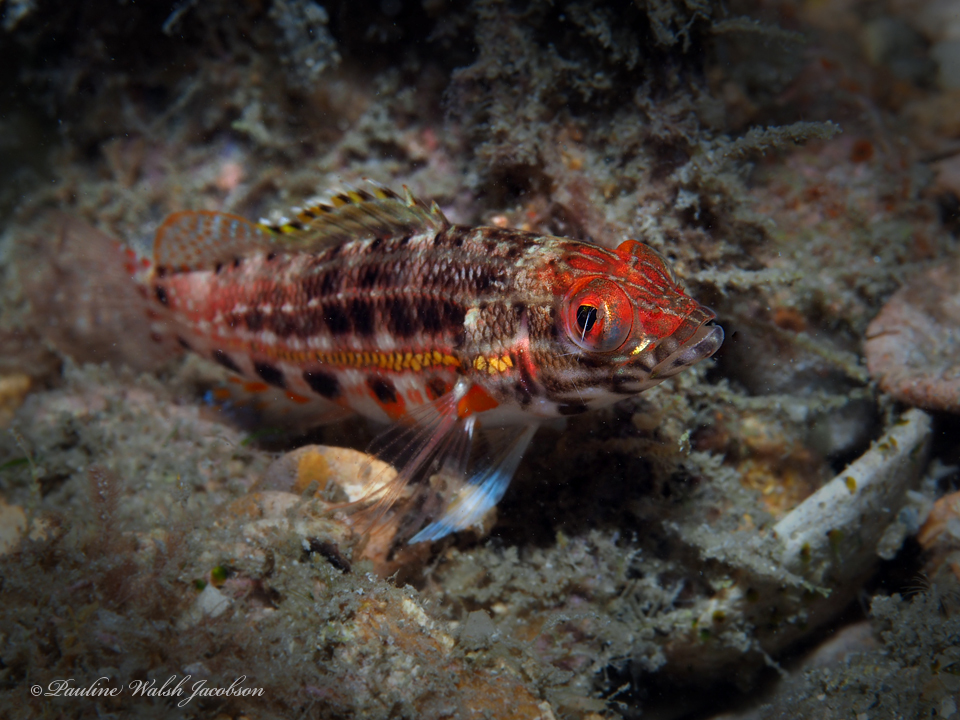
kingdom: Animalia
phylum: Chordata
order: Perciformes
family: Serranidae
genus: Serranus
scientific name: Serranus baldwini
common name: Lantern bass
